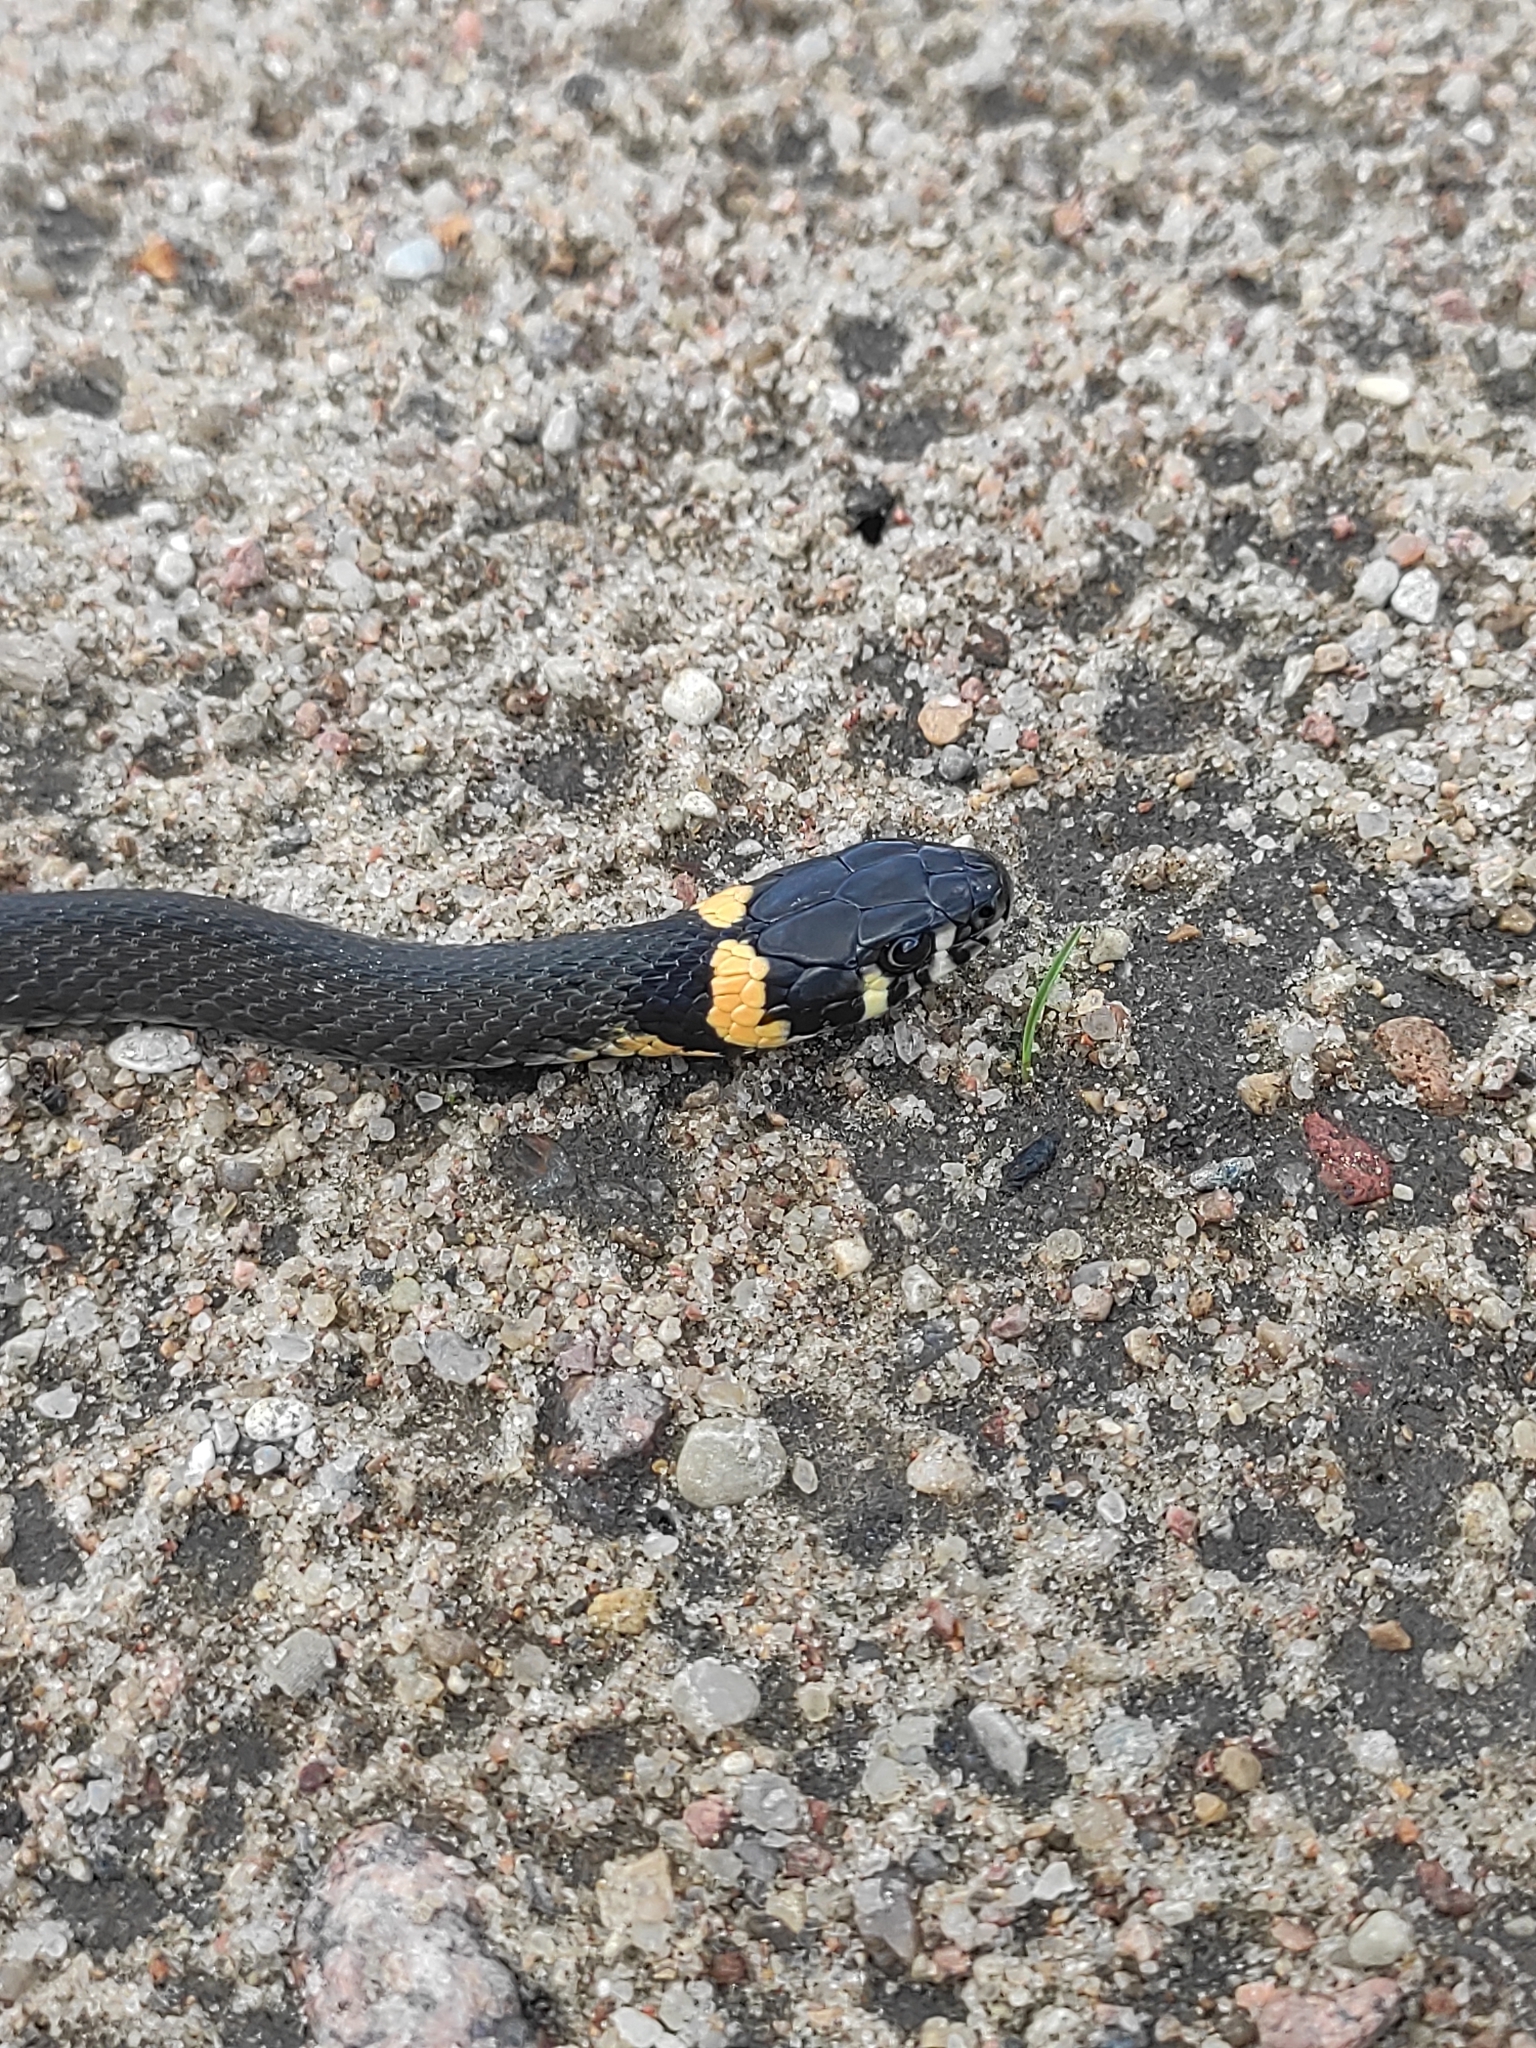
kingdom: Animalia
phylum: Chordata
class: Squamata
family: Colubridae
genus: Natrix
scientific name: Natrix natrix
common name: Grass snake
